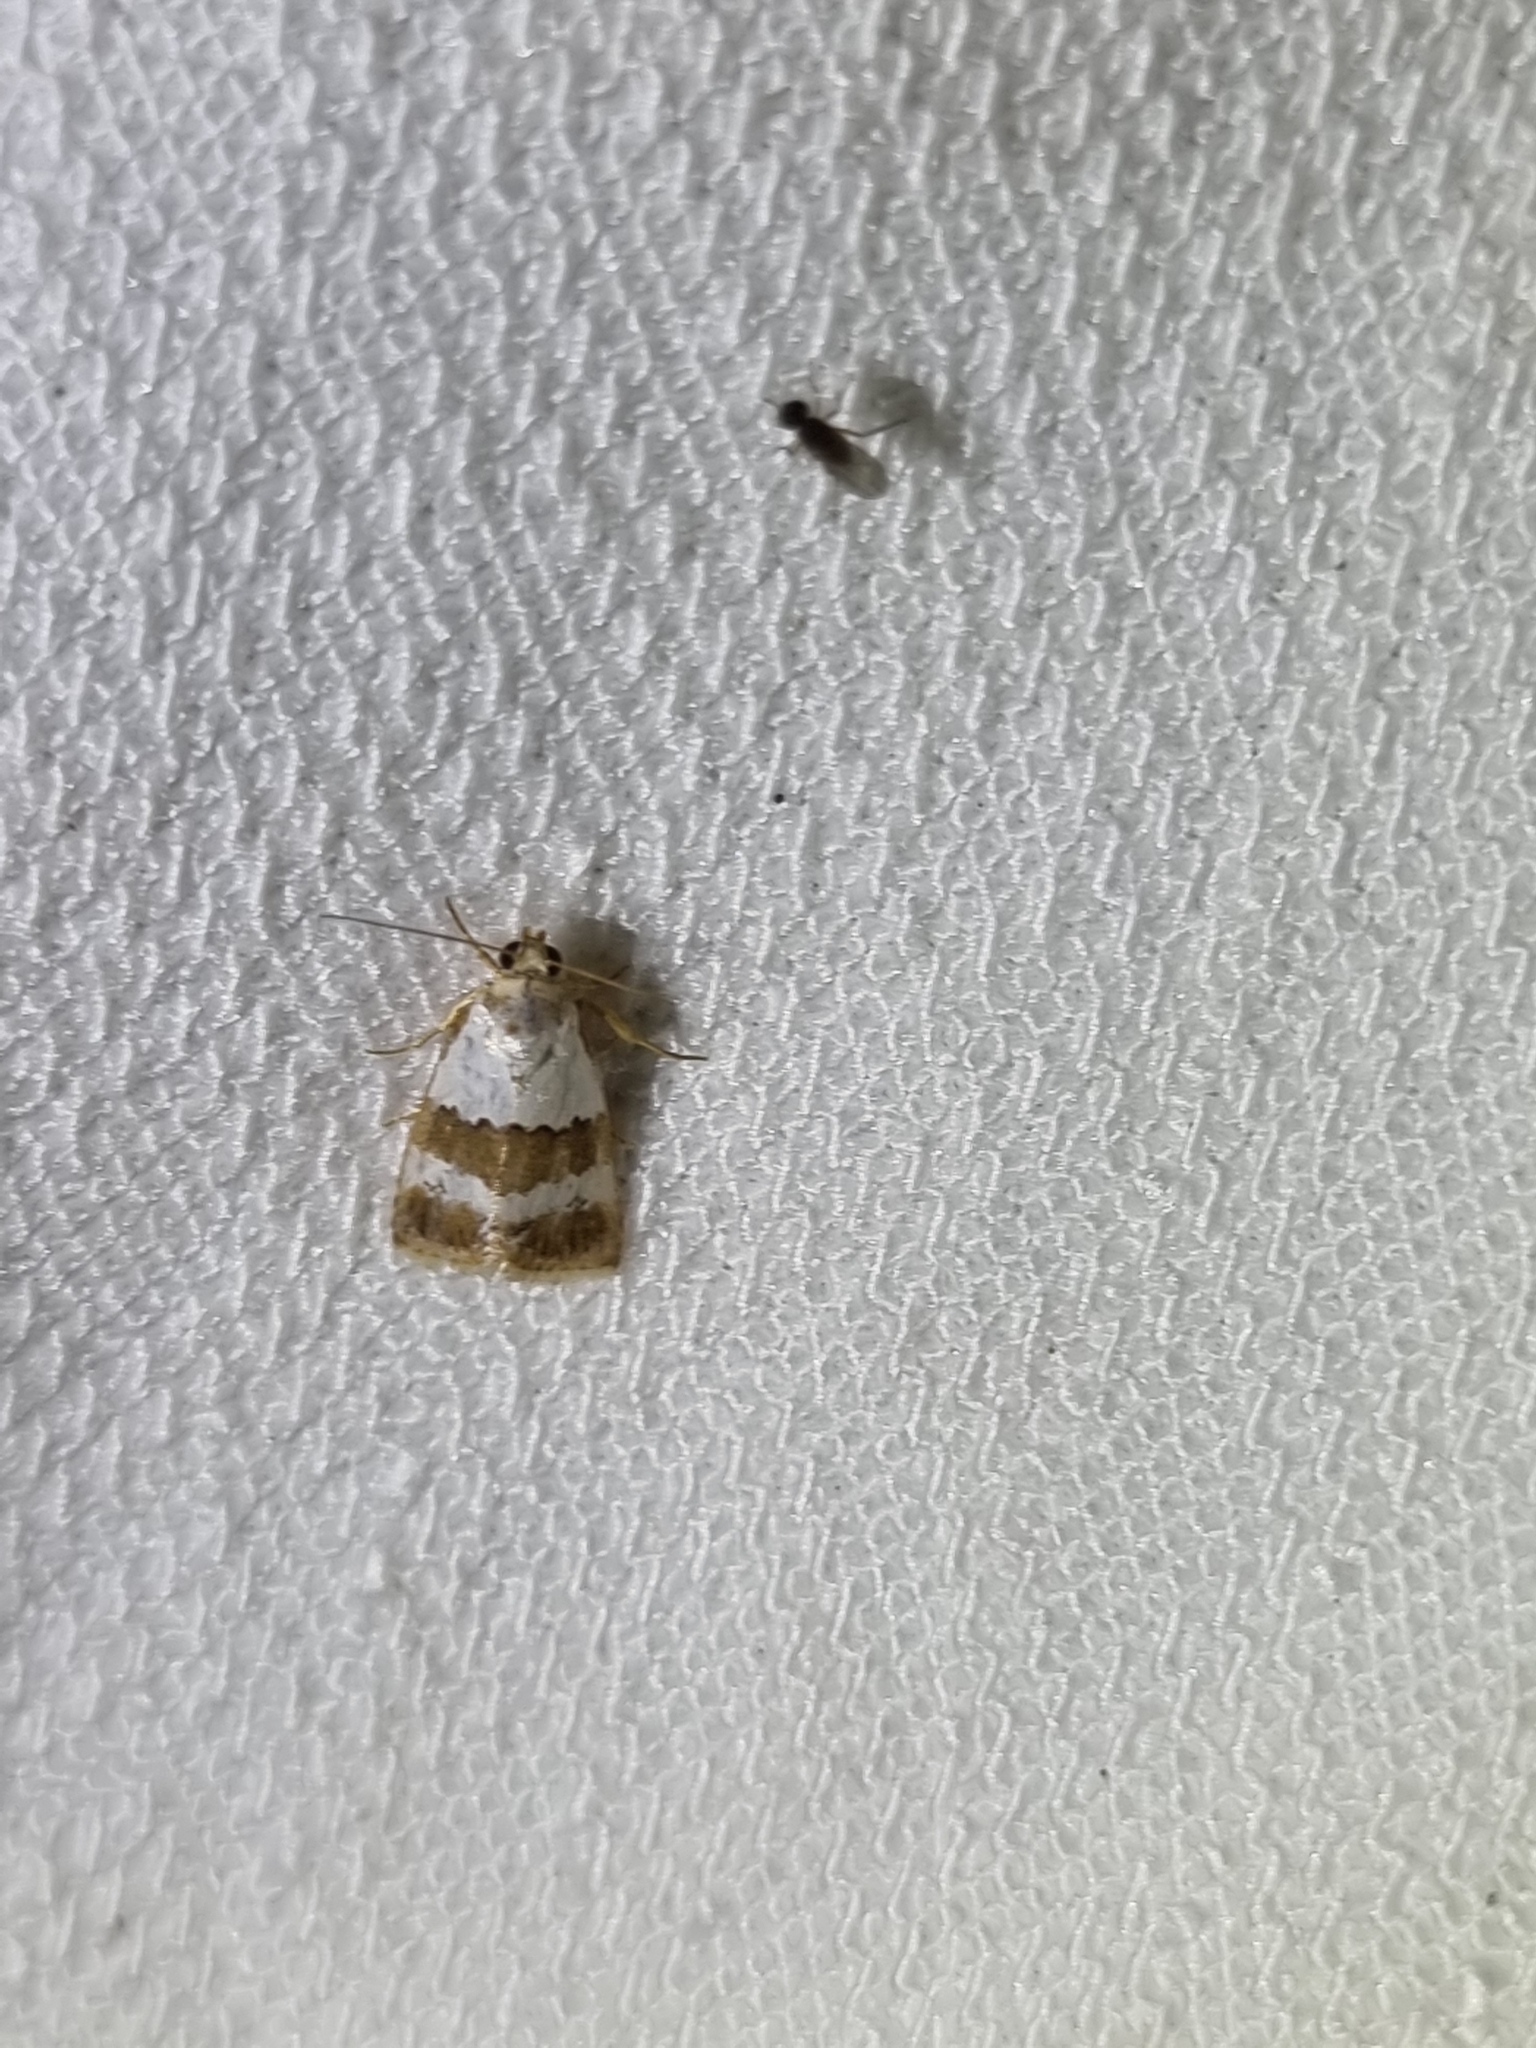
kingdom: Animalia
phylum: Arthropoda
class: Insecta
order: Lepidoptera
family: Noctuidae
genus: Maliattha
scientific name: Maliattha ritsemae
